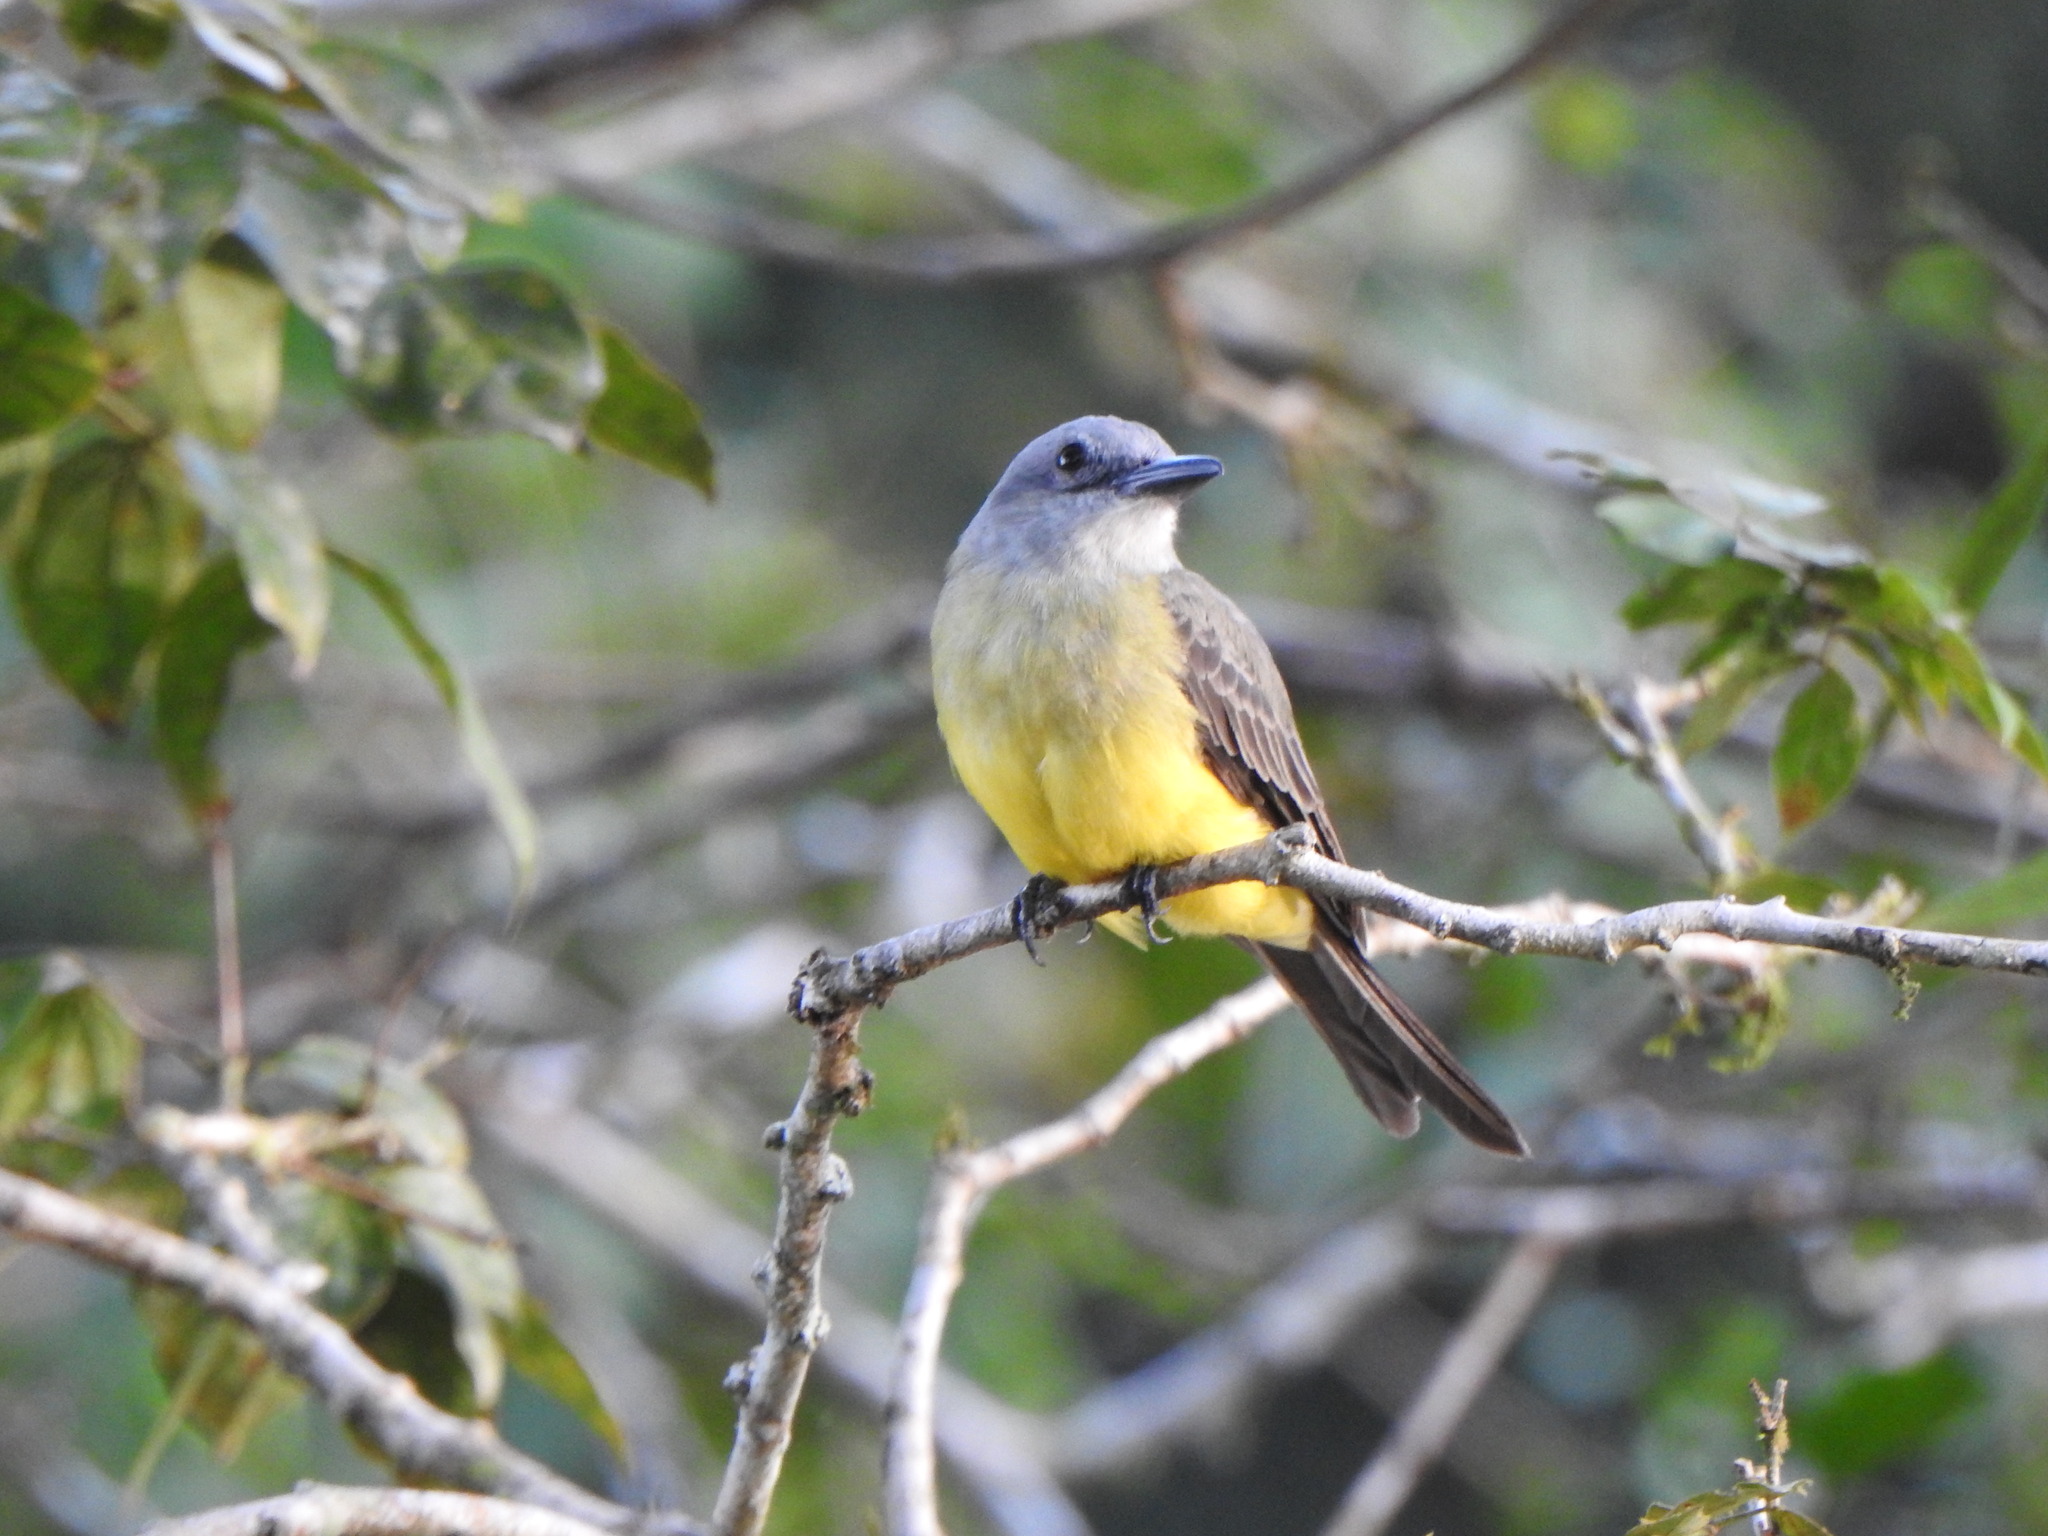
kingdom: Animalia
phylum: Chordata
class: Aves
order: Passeriformes
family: Tyrannidae
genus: Tyrannus
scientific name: Tyrannus melancholicus
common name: Tropical kingbird
